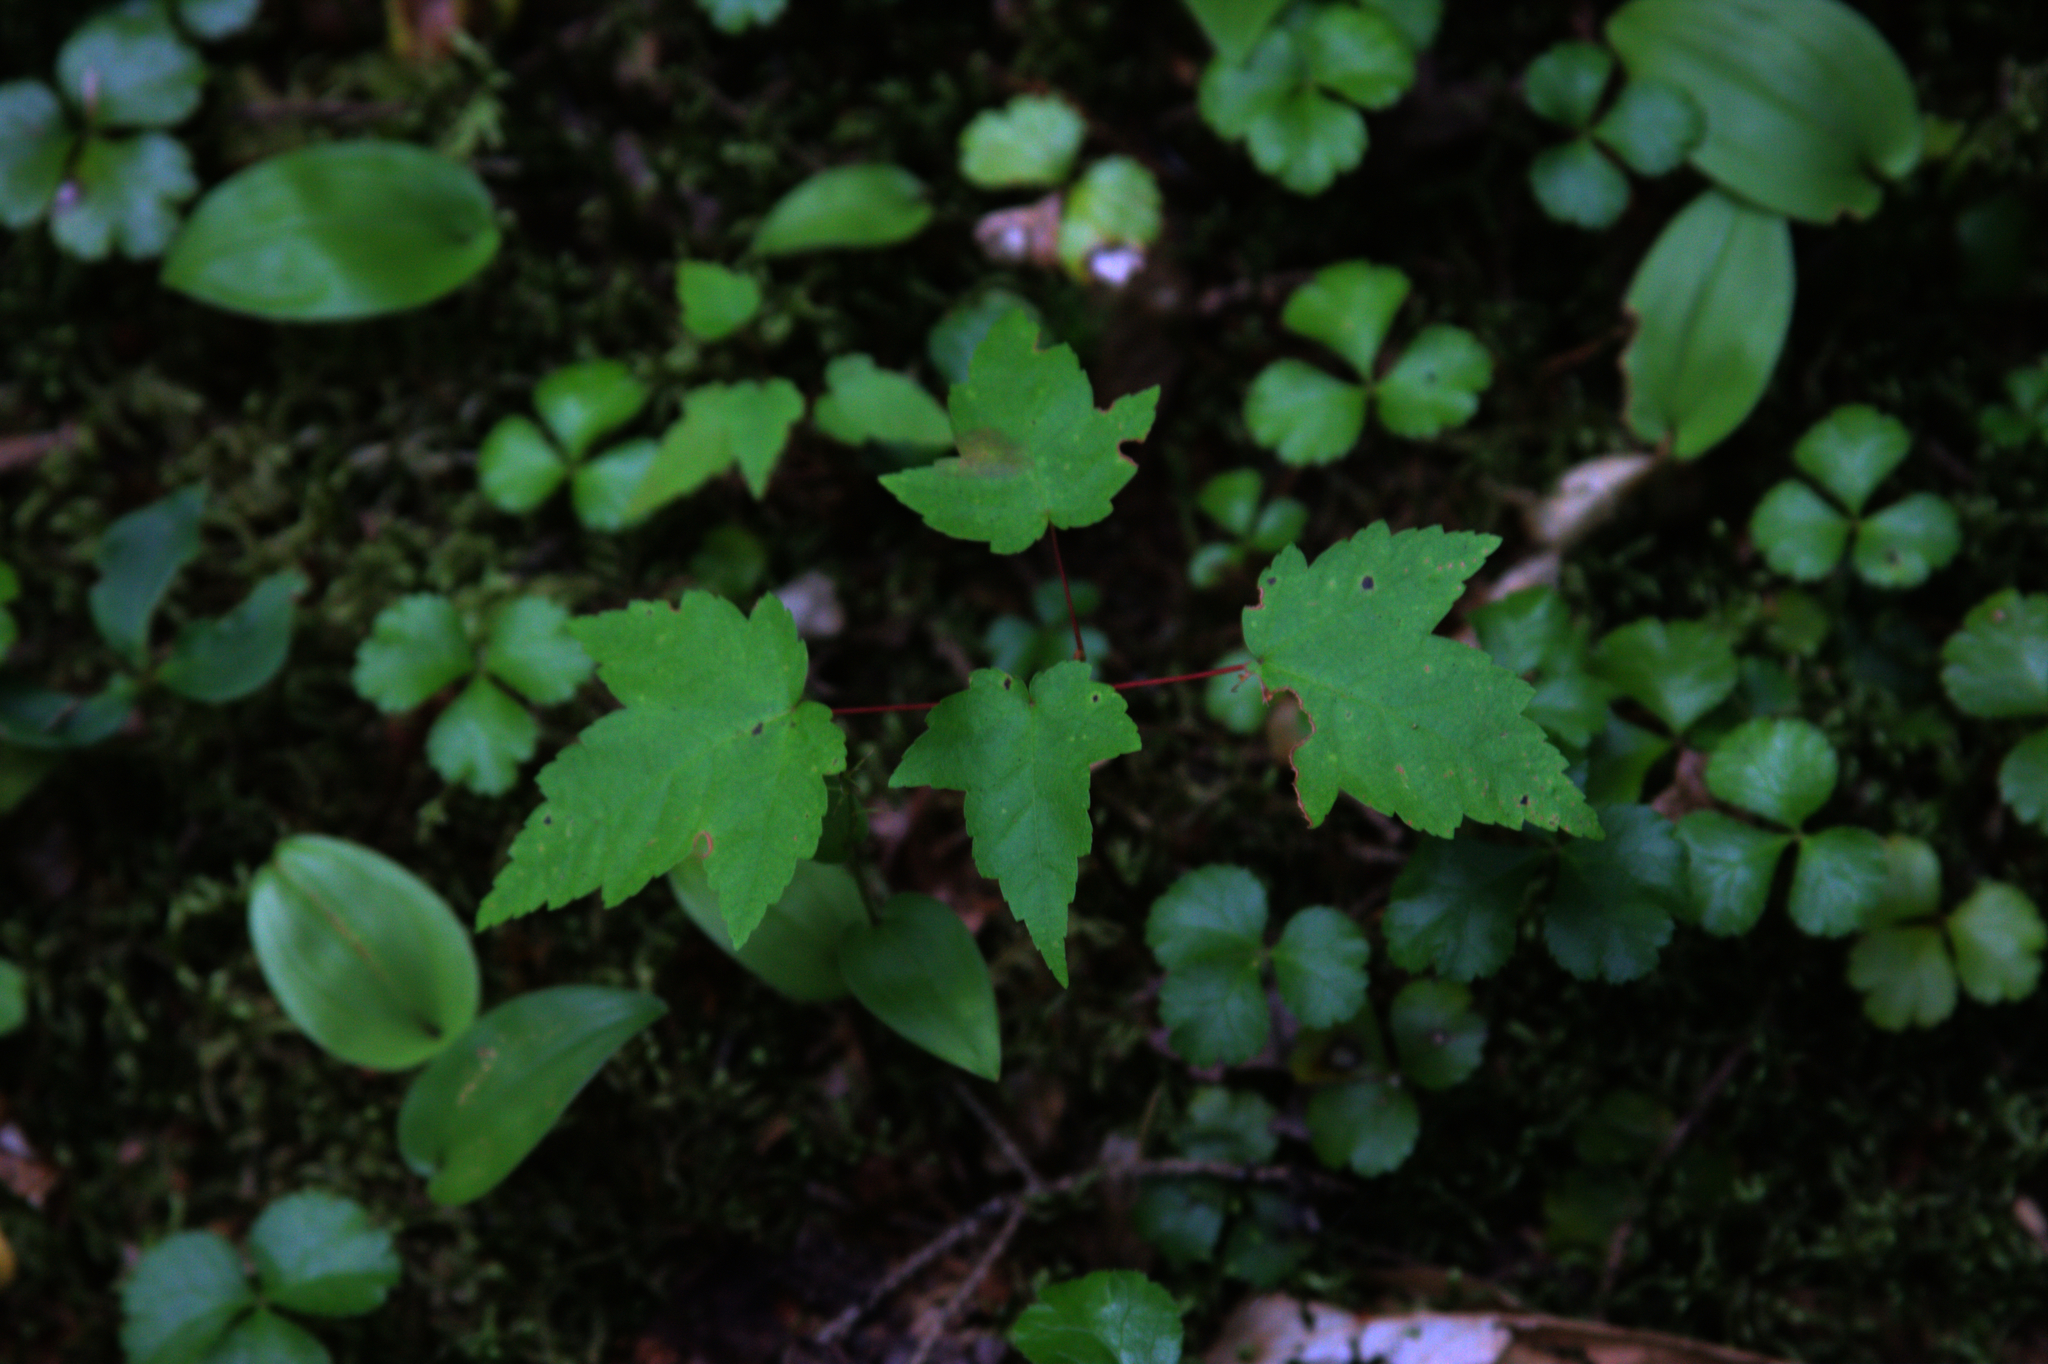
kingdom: Plantae
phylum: Tracheophyta
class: Magnoliopsida
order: Sapindales
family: Sapindaceae
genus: Acer
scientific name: Acer rubrum
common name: Red maple
